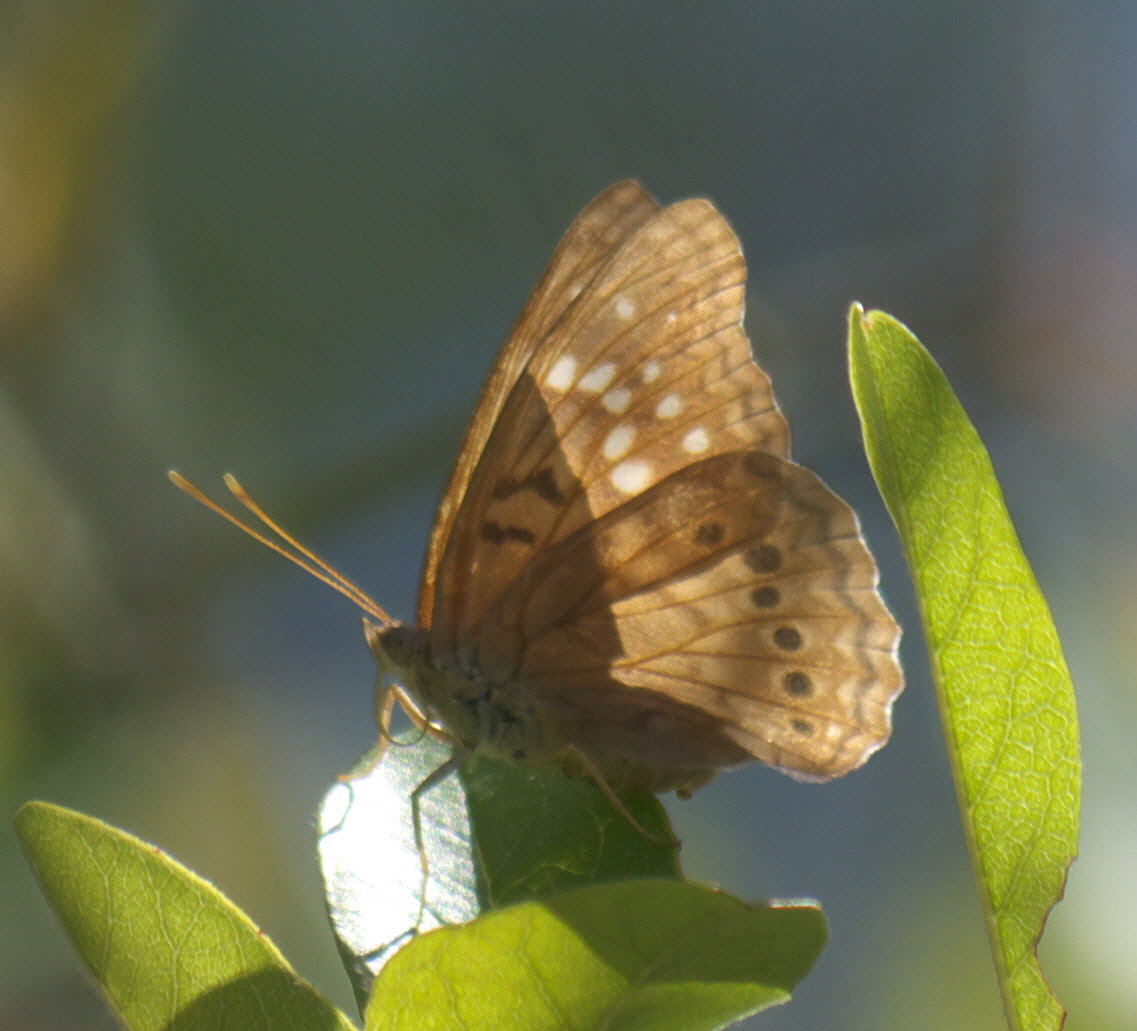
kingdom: Animalia
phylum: Arthropoda
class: Insecta
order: Lepidoptera
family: Nymphalidae
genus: Asterocampa
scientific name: Asterocampa clyton
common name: Tawny emperor
